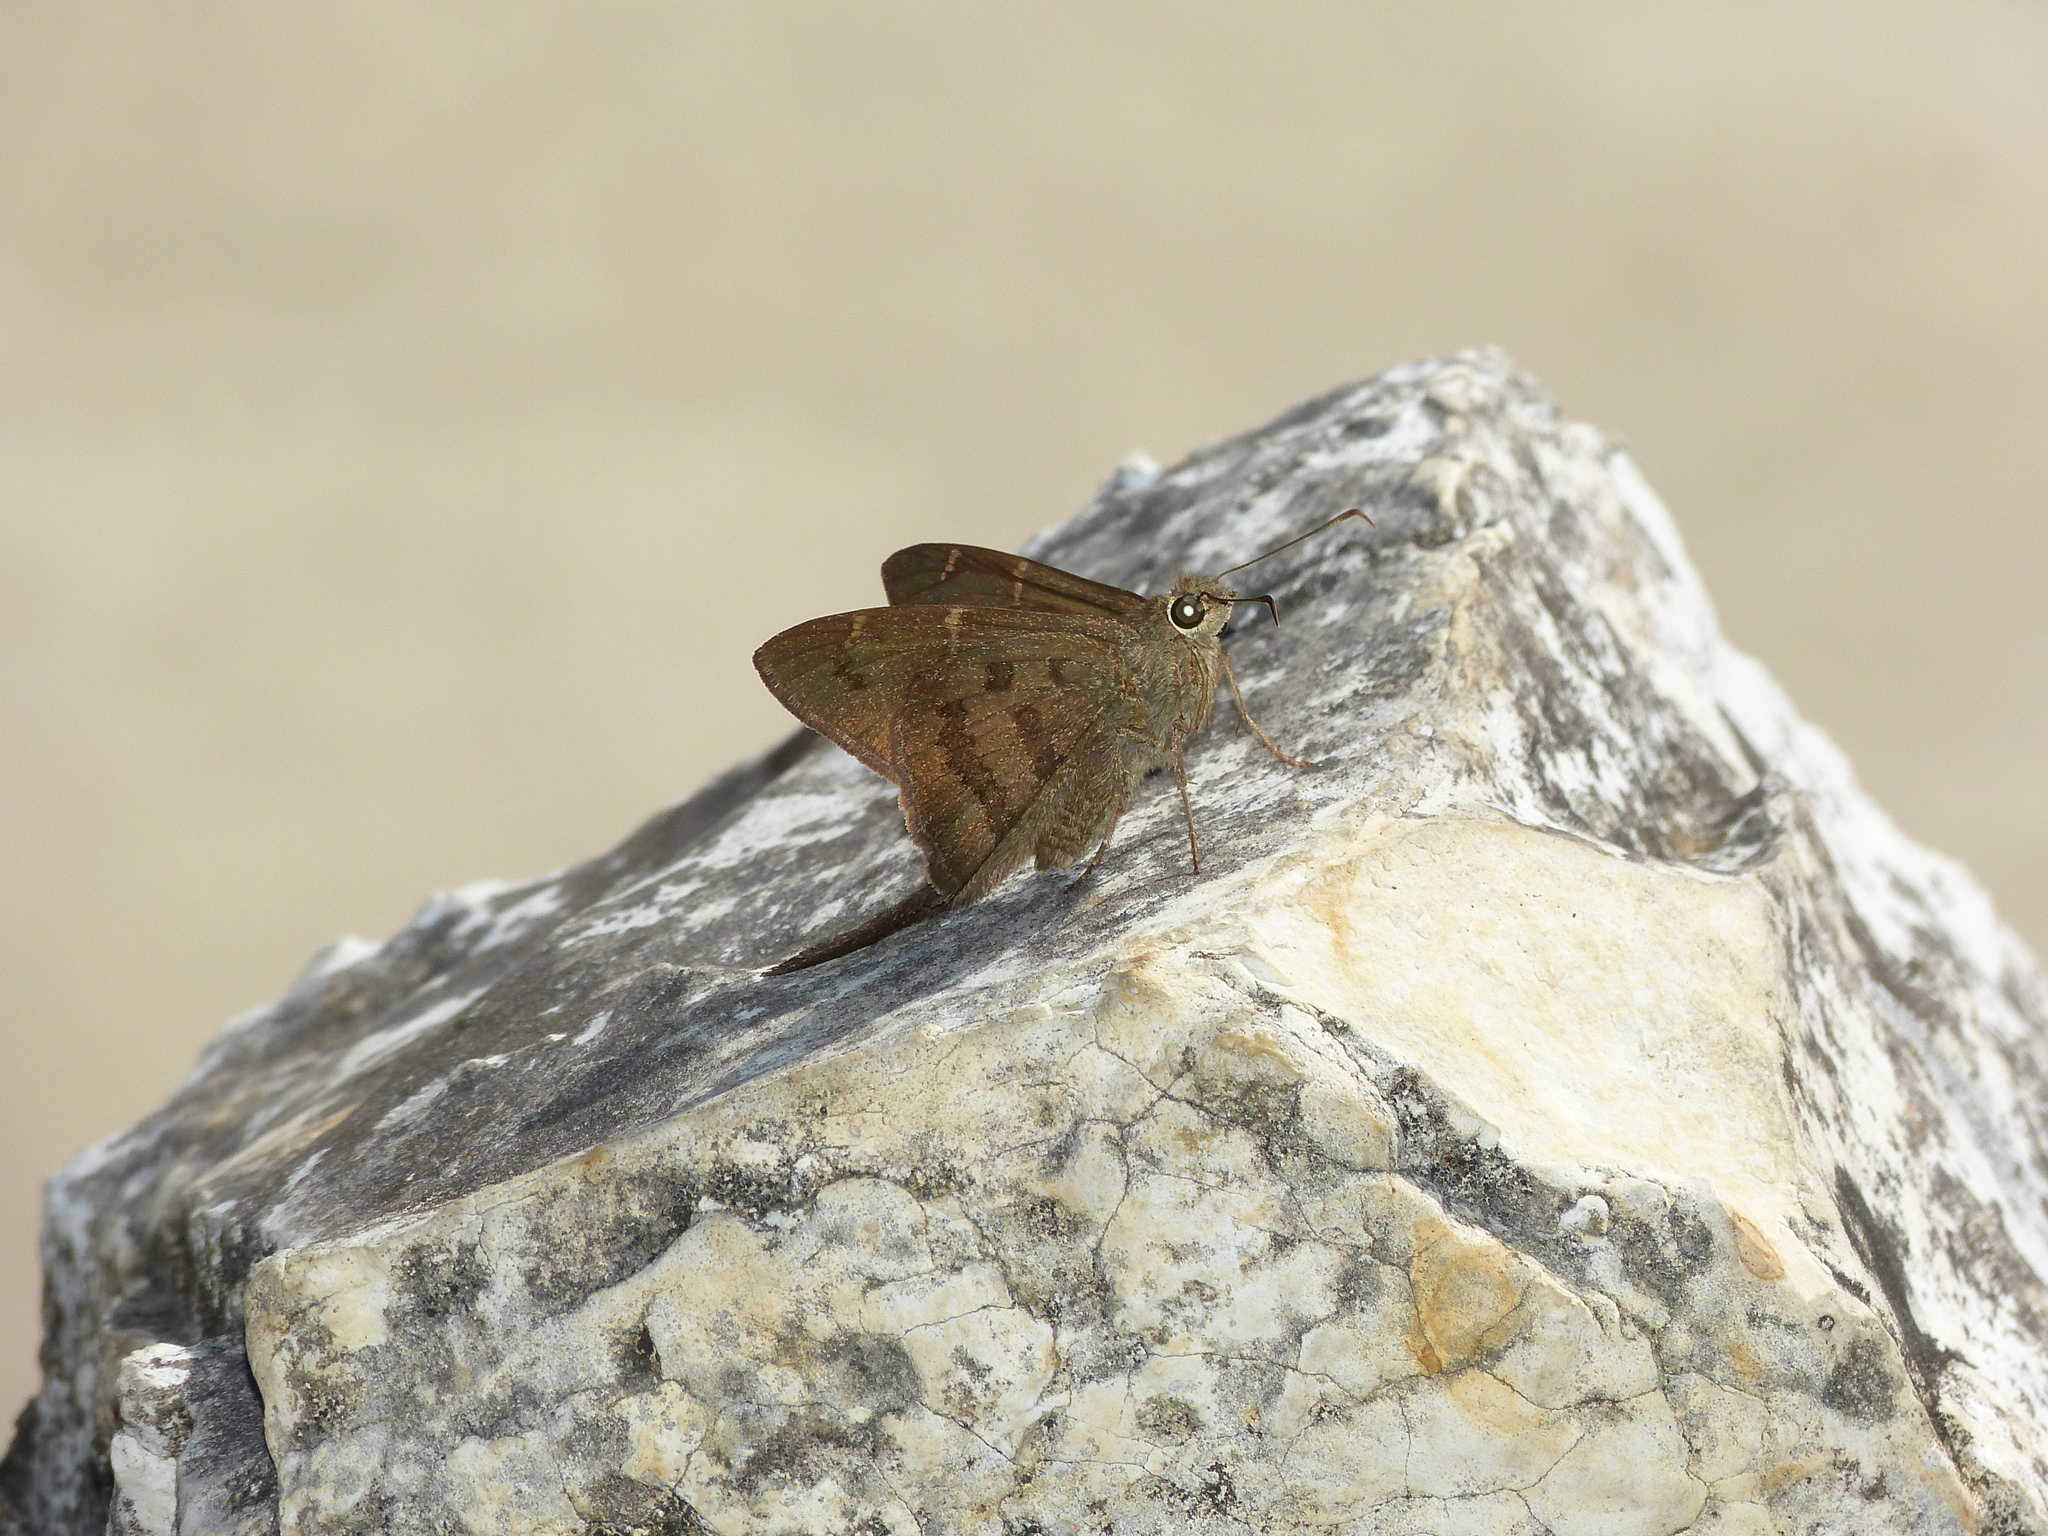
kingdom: Animalia
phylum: Arthropoda
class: Insecta
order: Lepidoptera
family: Hesperiidae
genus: Urbanus
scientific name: Urbanus procne
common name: Brown longtail
